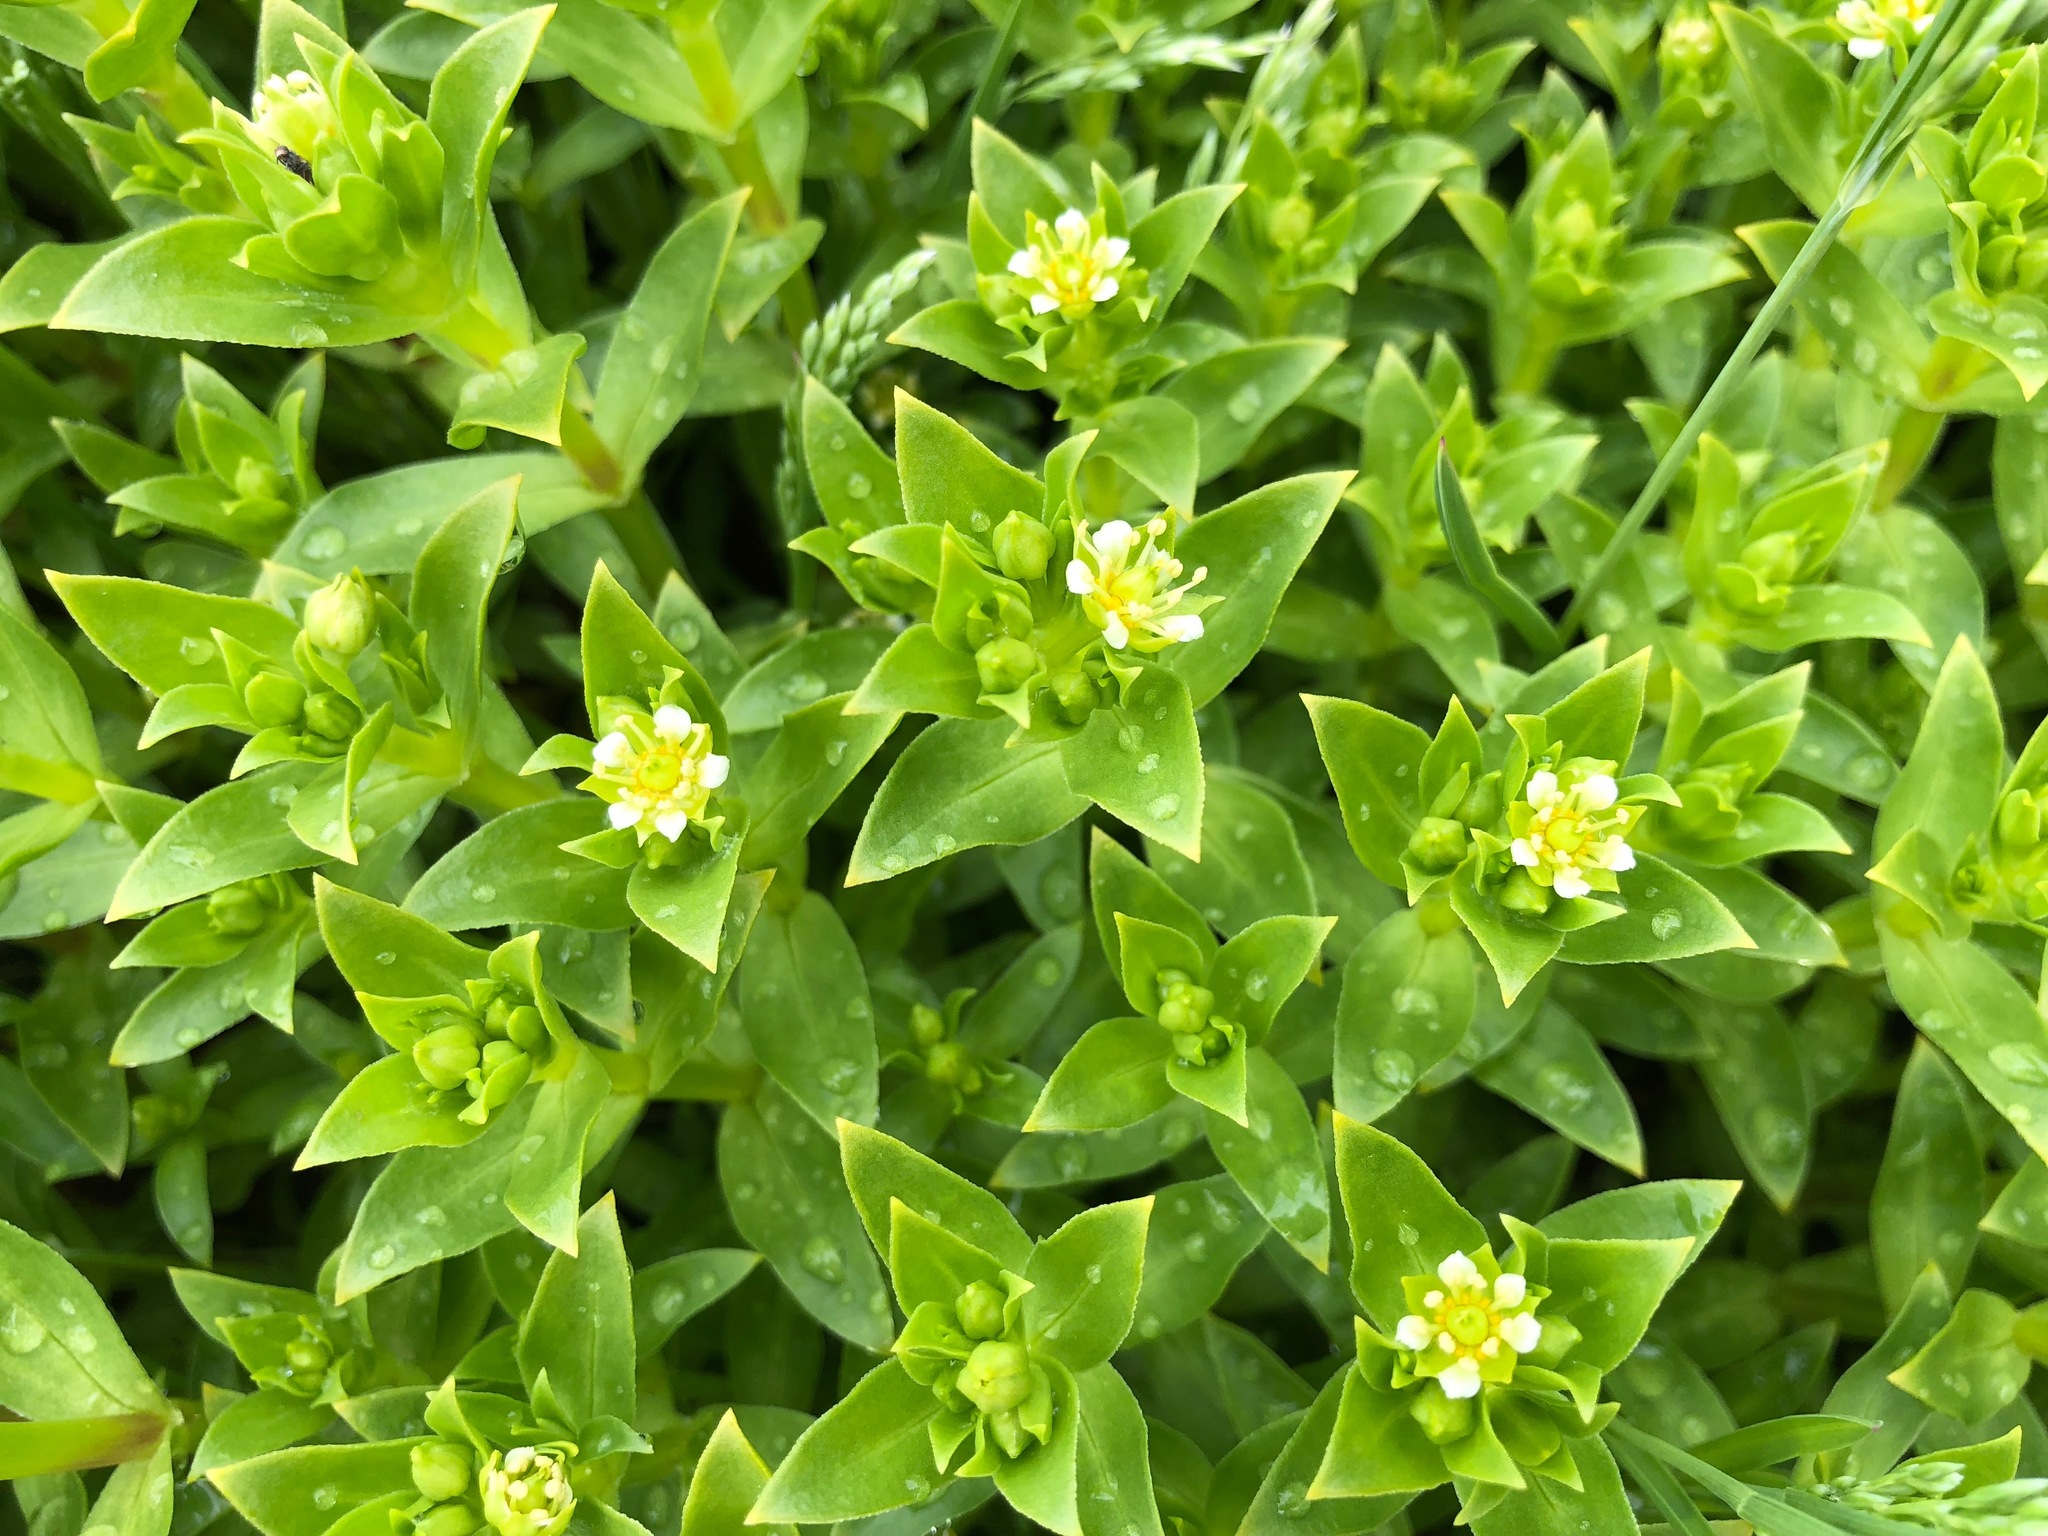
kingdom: Plantae
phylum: Tracheophyta
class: Magnoliopsida
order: Caryophyllales
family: Caryophyllaceae
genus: Honckenya
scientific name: Honckenya peploides
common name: Sea sandwort
